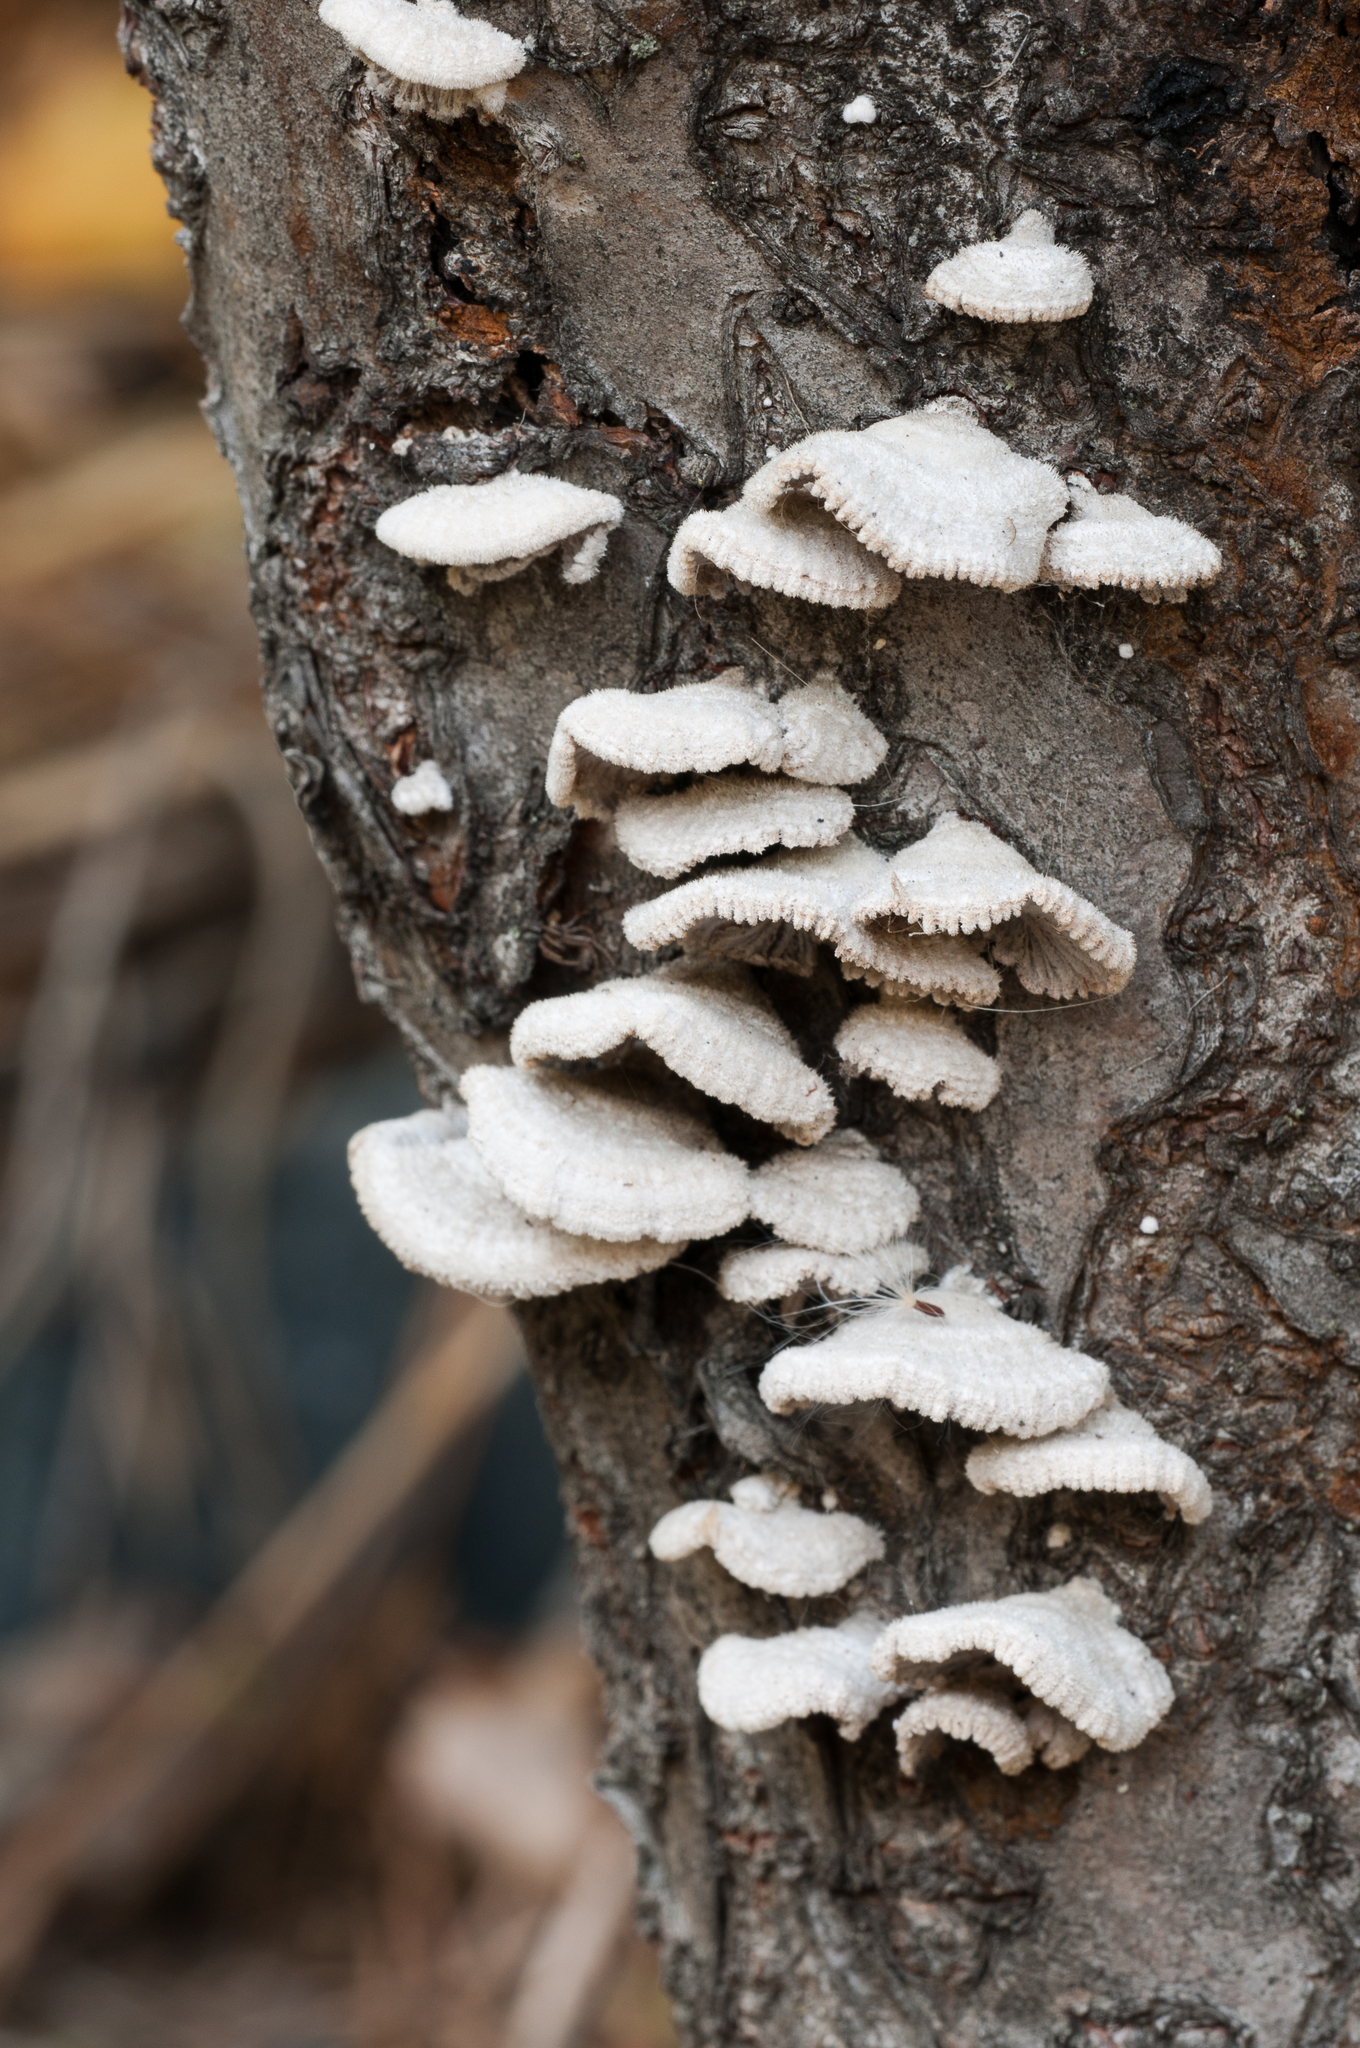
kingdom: Fungi
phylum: Basidiomycota
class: Agaricomycetes
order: Agaricales
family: Schizophyllaceae
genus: Schizophyllum
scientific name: Schizophyllum commune
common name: Common porecrust
